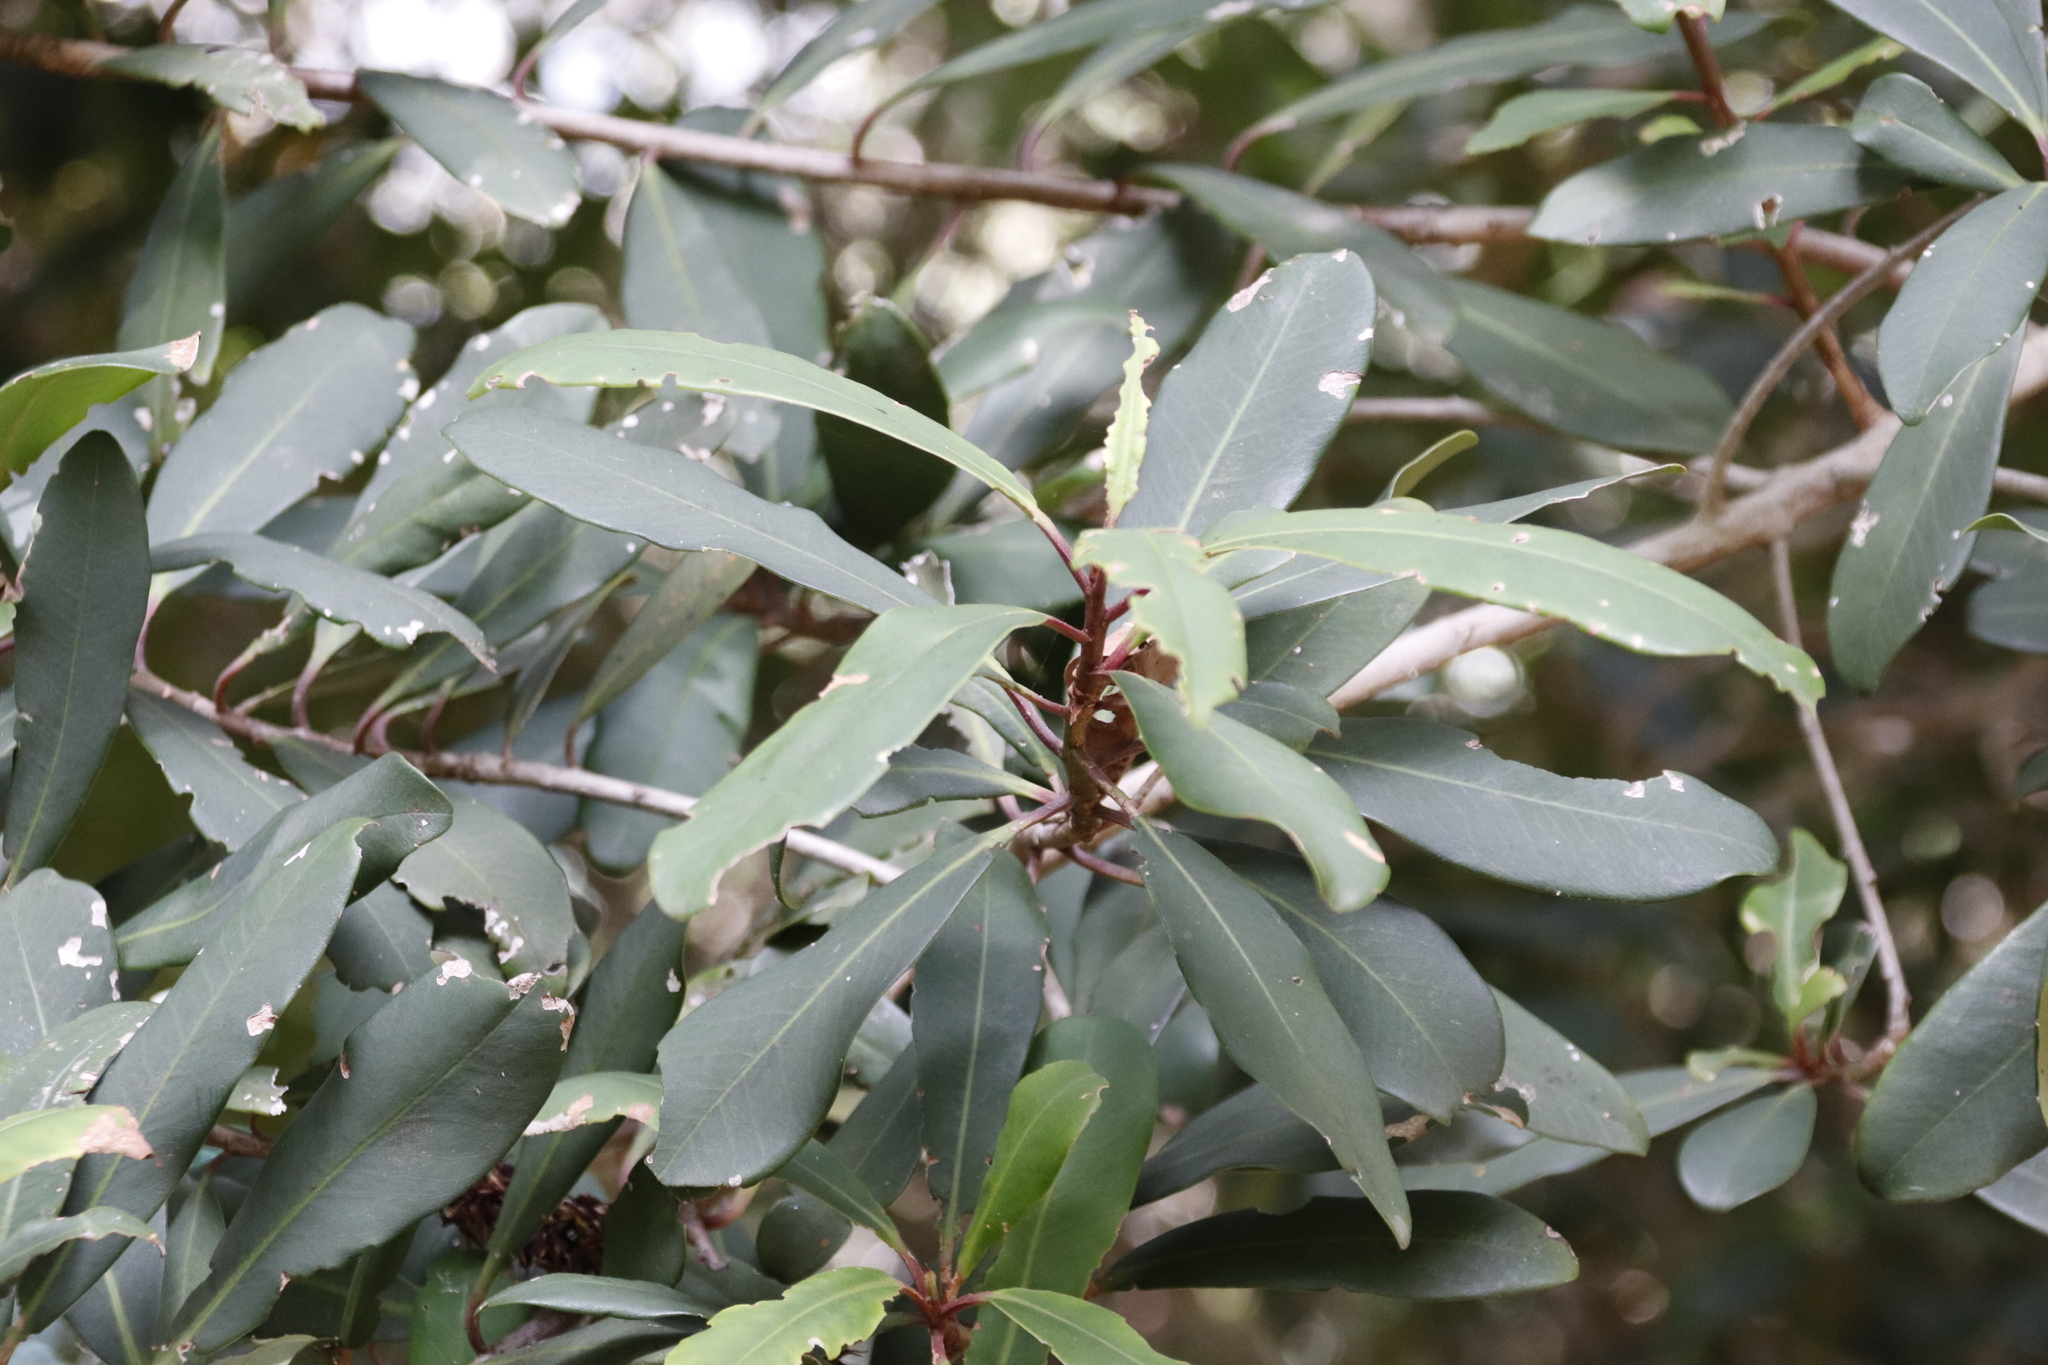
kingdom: Plantae
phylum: Tracheophyta
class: Magnoliopsida
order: Ericales
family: Primulaceae
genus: Myrsine
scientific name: Myrsine melanophloeos
